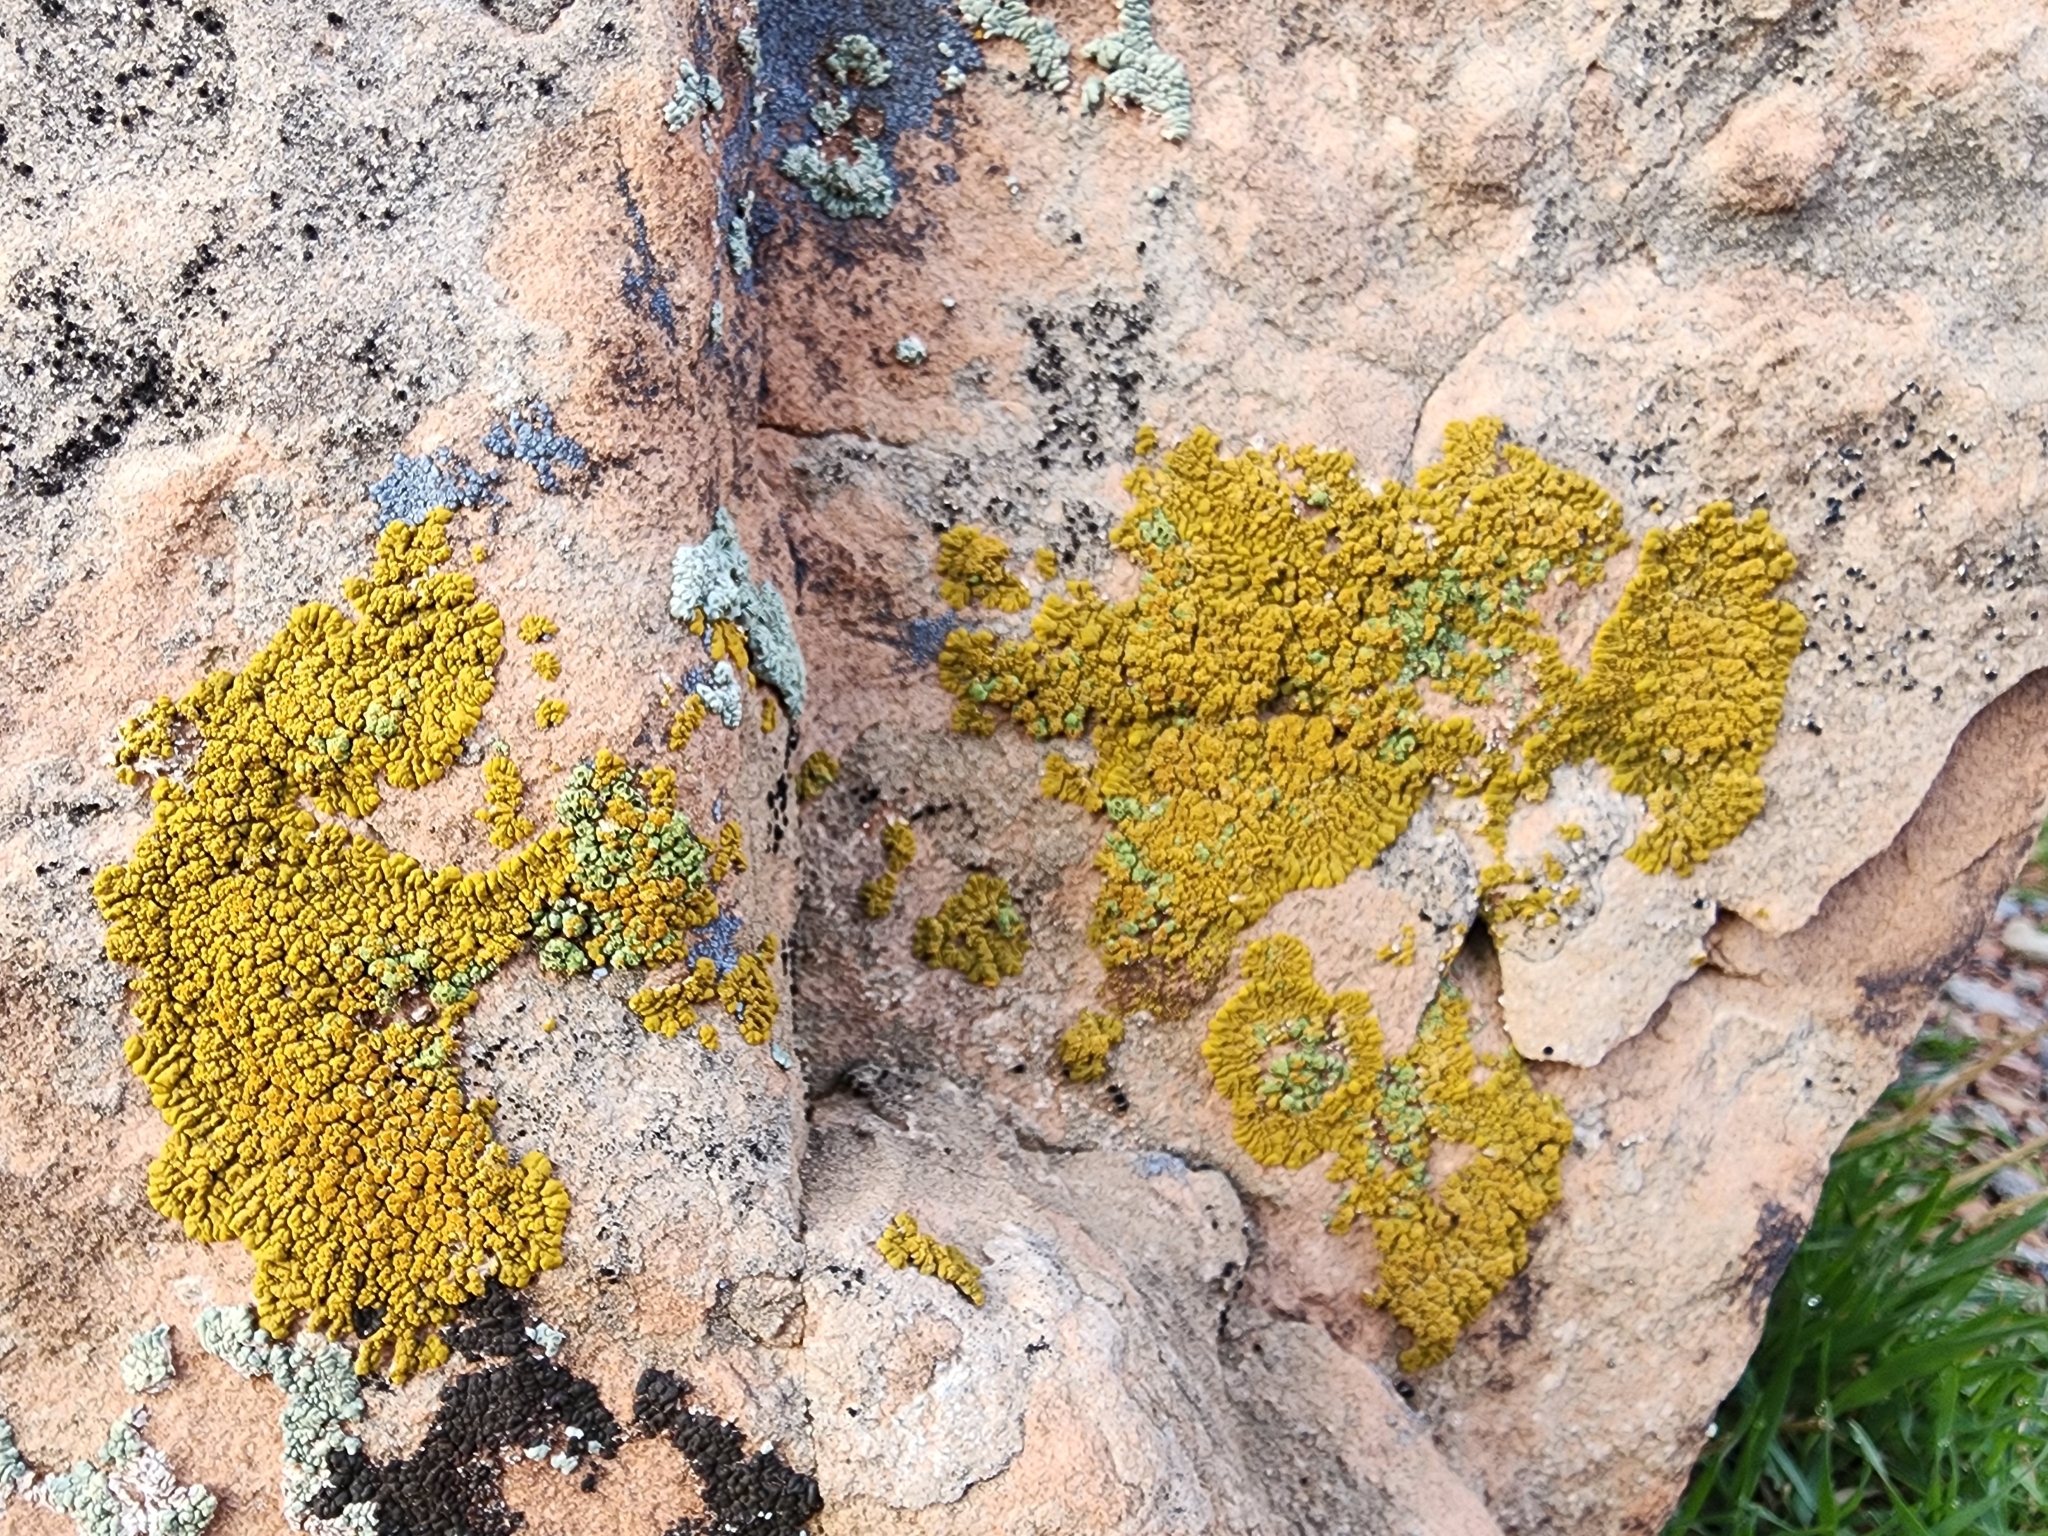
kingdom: Fungi
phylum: Ascomycota
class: Candelariomycetes
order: Candelariales
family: Candelariaceae
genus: Candelariella
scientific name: Candelariella rosulans
